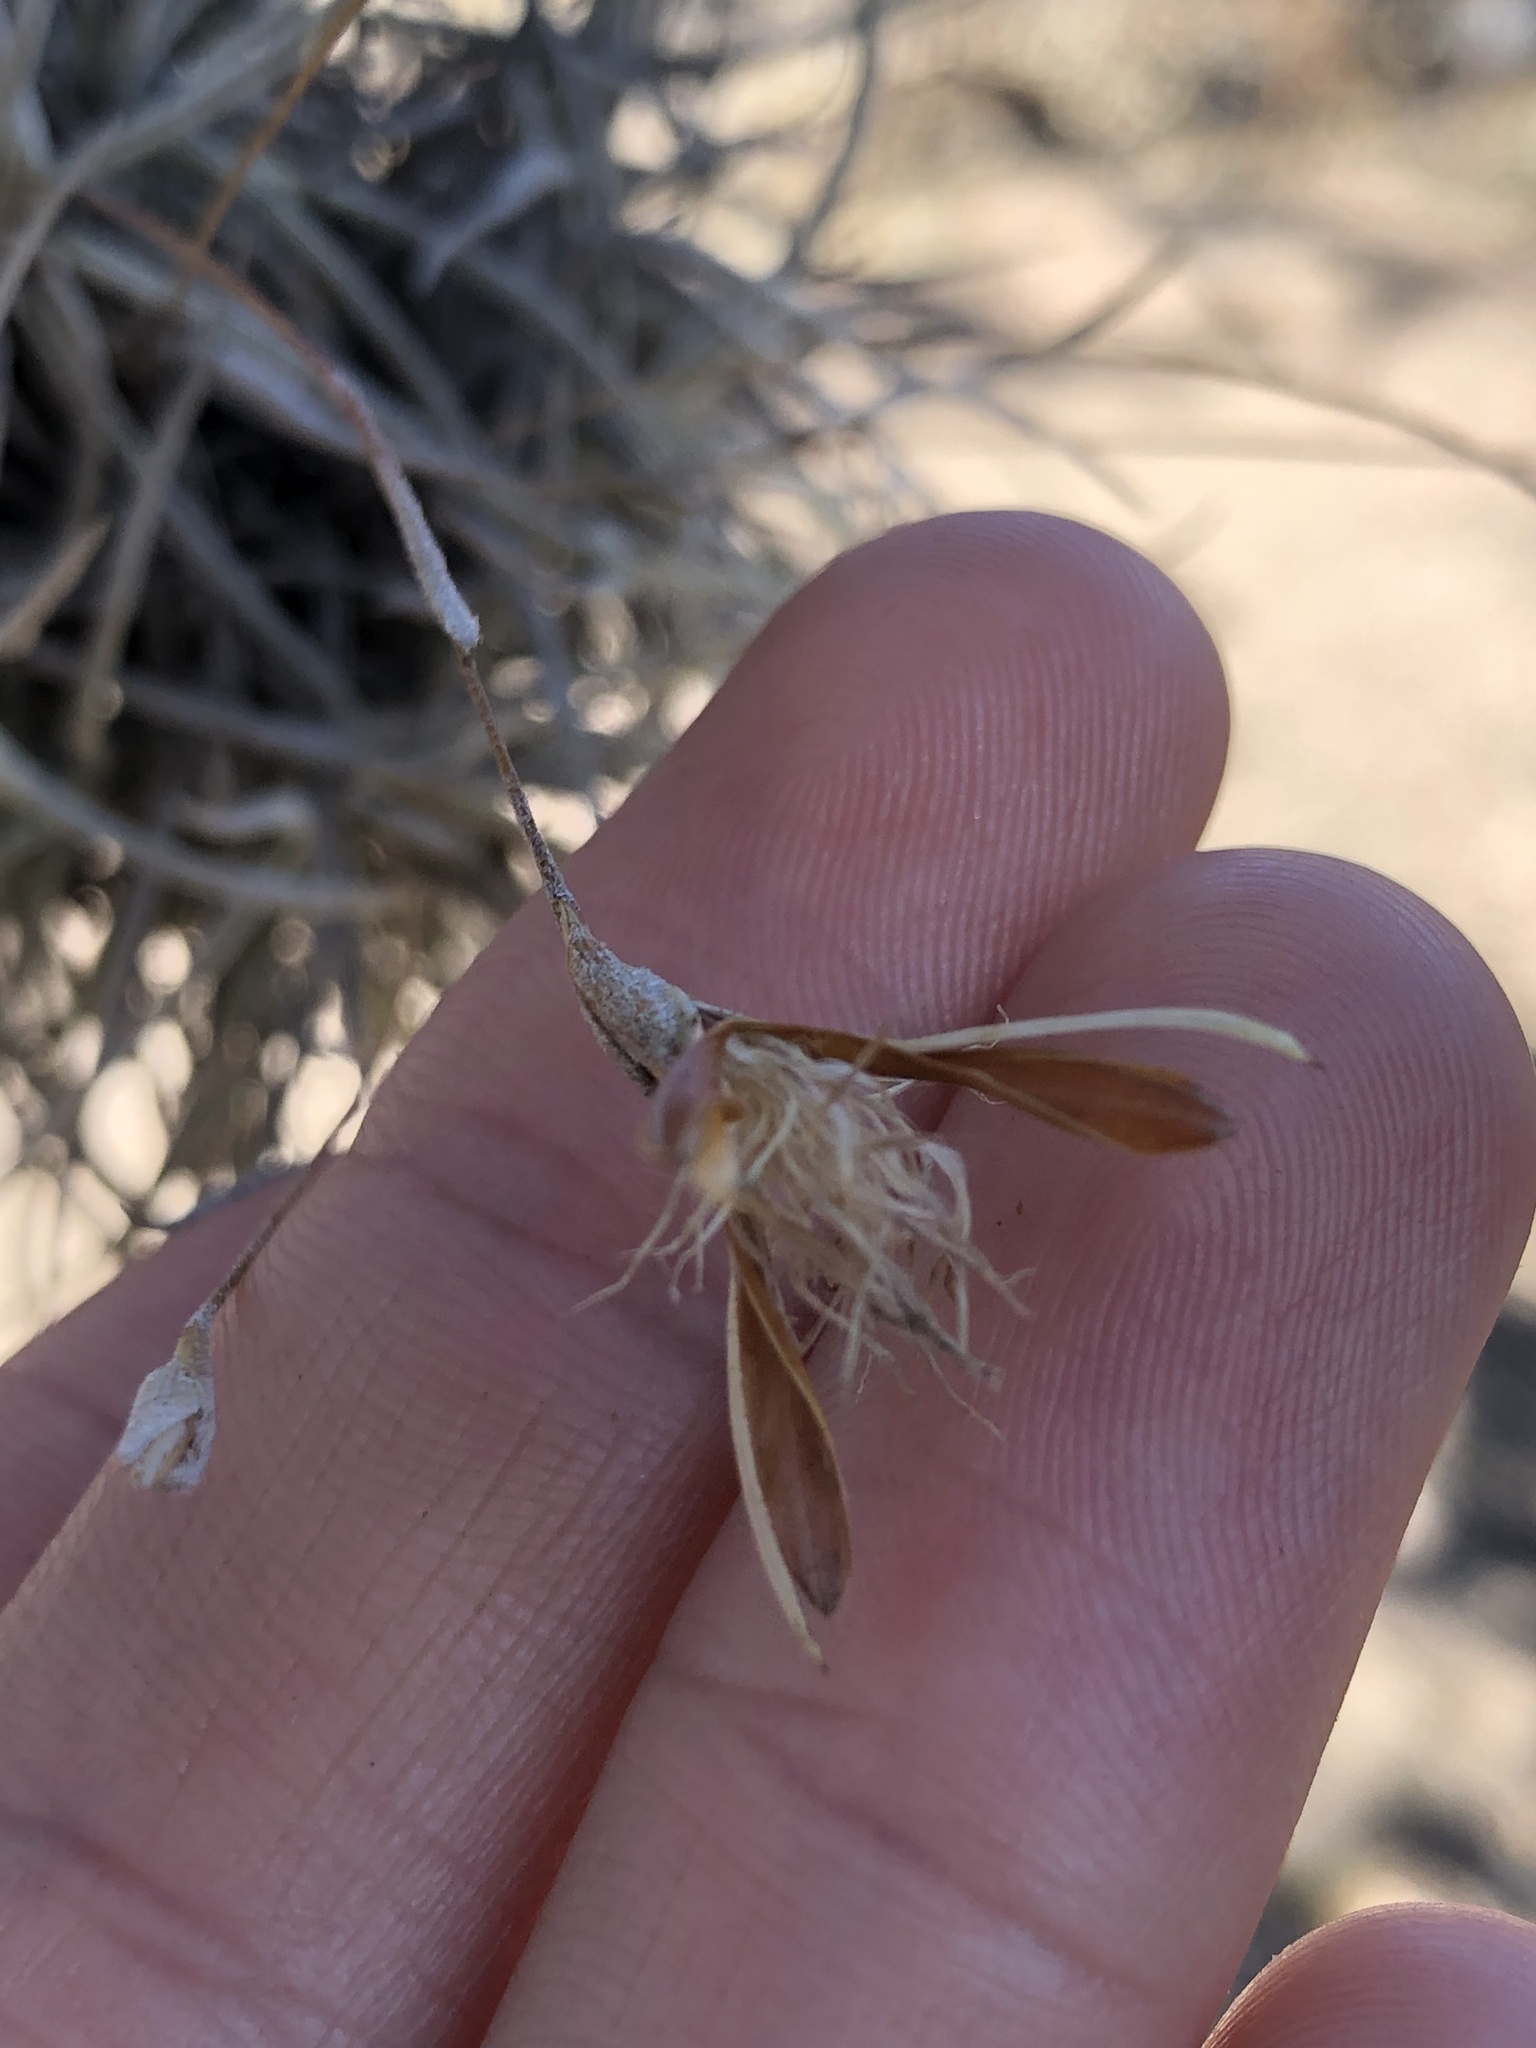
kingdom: Plantae
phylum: Tracheophyta
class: Liliopsida
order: Poales
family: Bromeliaceae
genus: Tillandsia
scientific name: Tillandsia recurvata
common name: Small ballmoss
